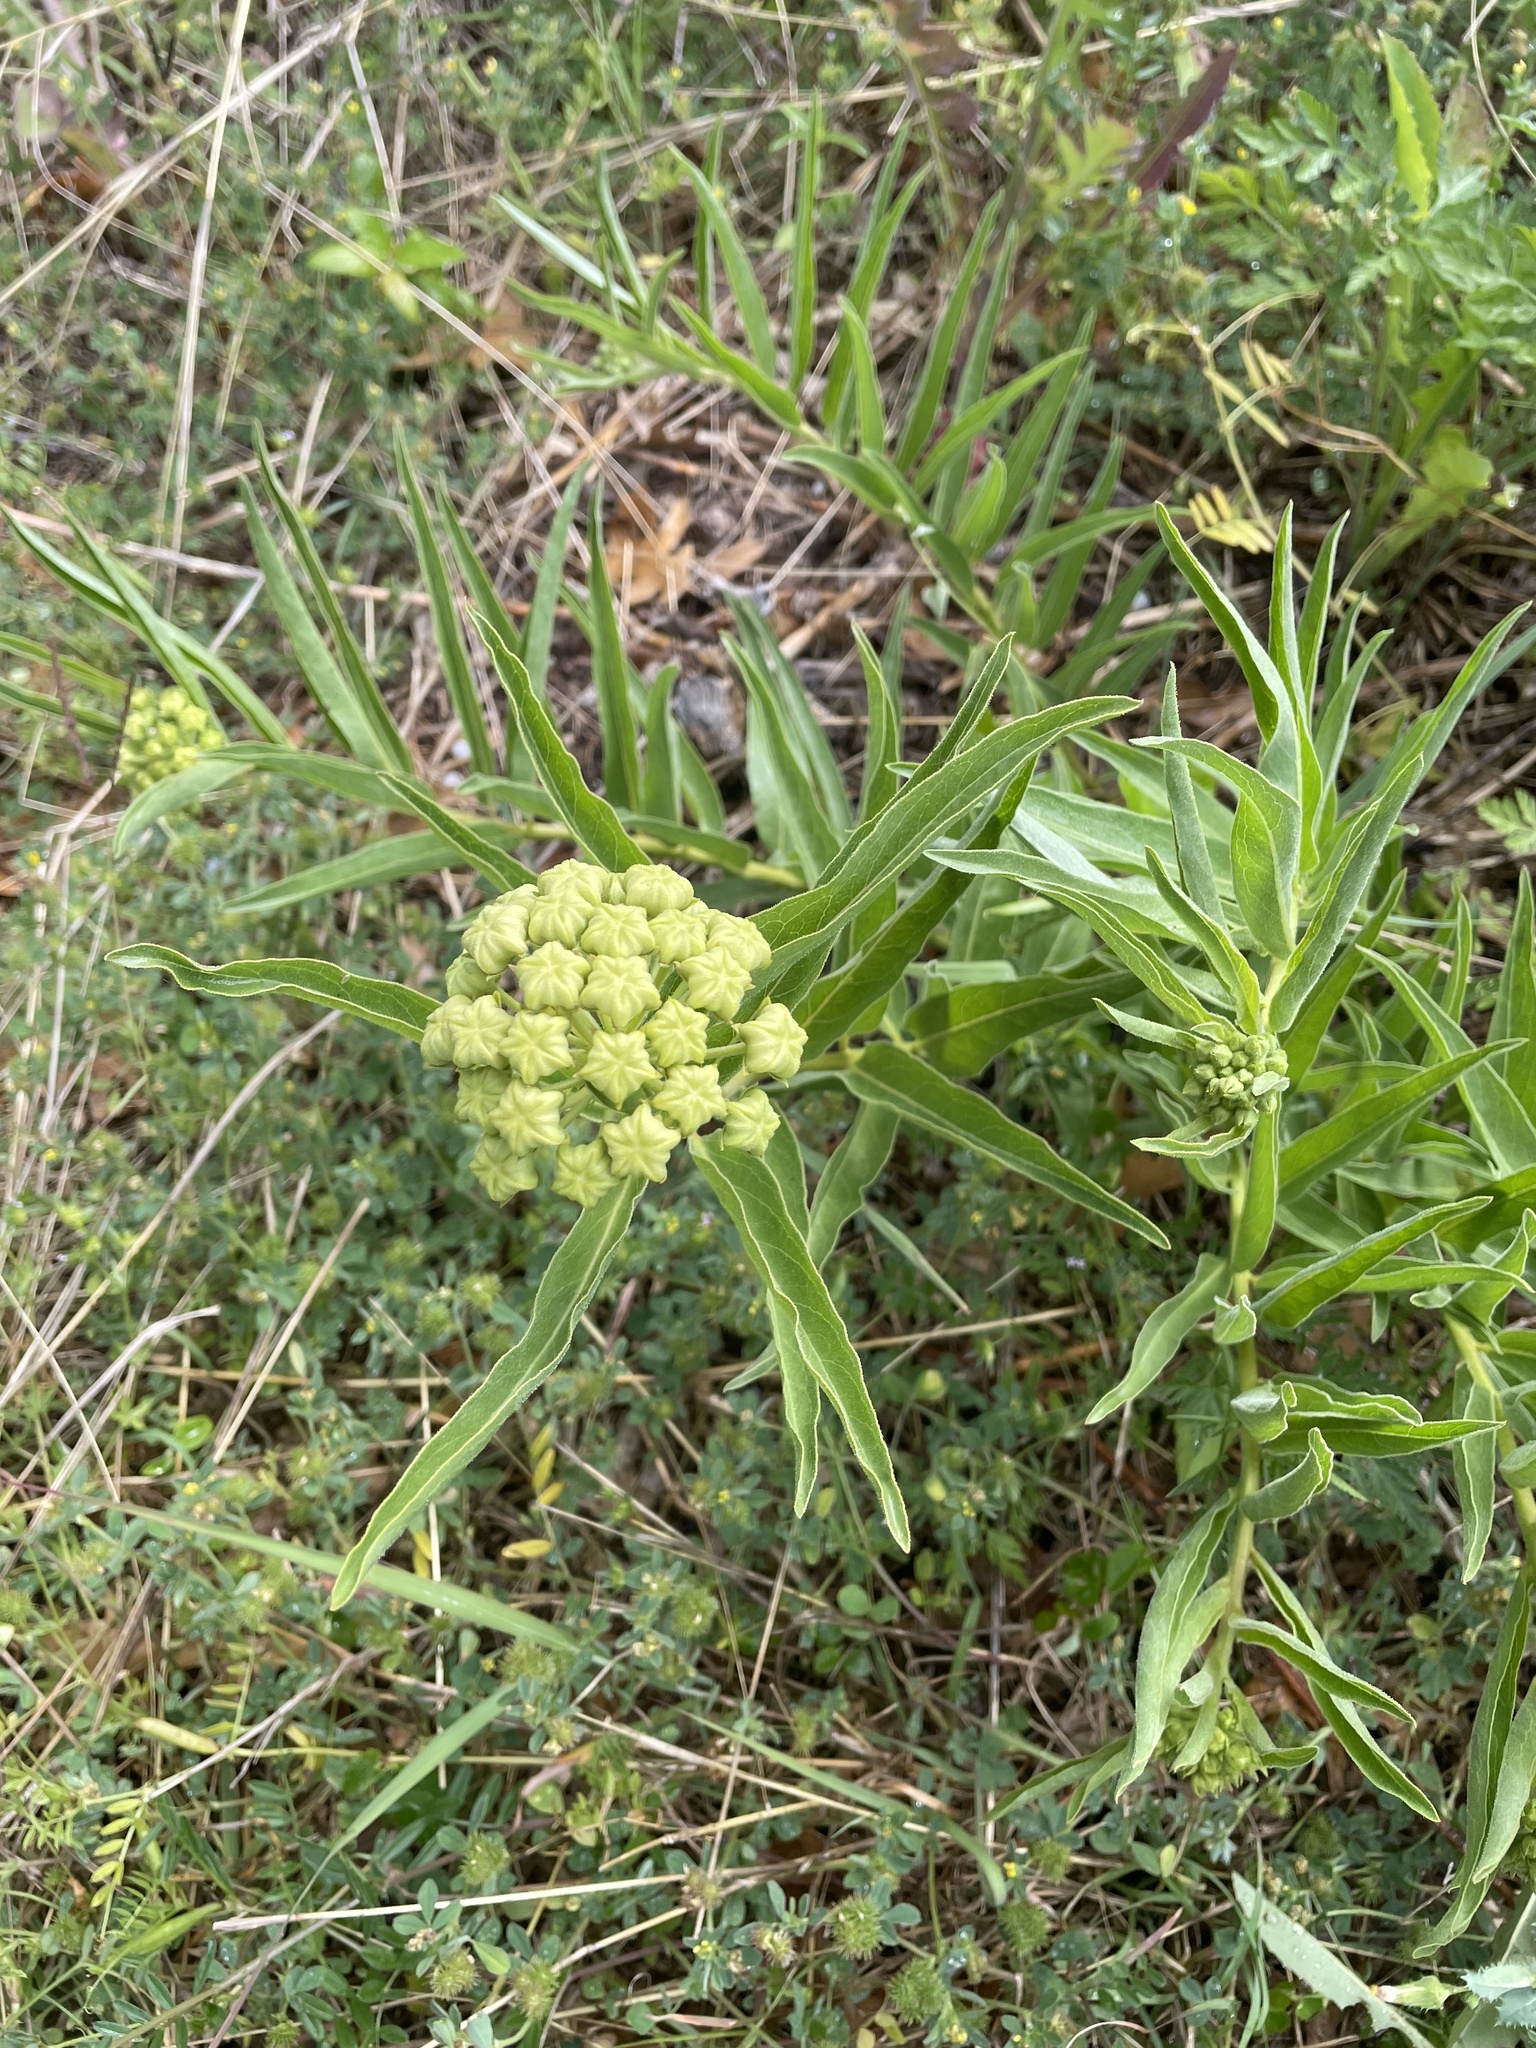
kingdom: Plantae
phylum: Tracheophyta
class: Magnoliopsida
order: Gentianales
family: Apocynaceae
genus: Asclepias
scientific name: Asclepias asperula
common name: Antelope horns
